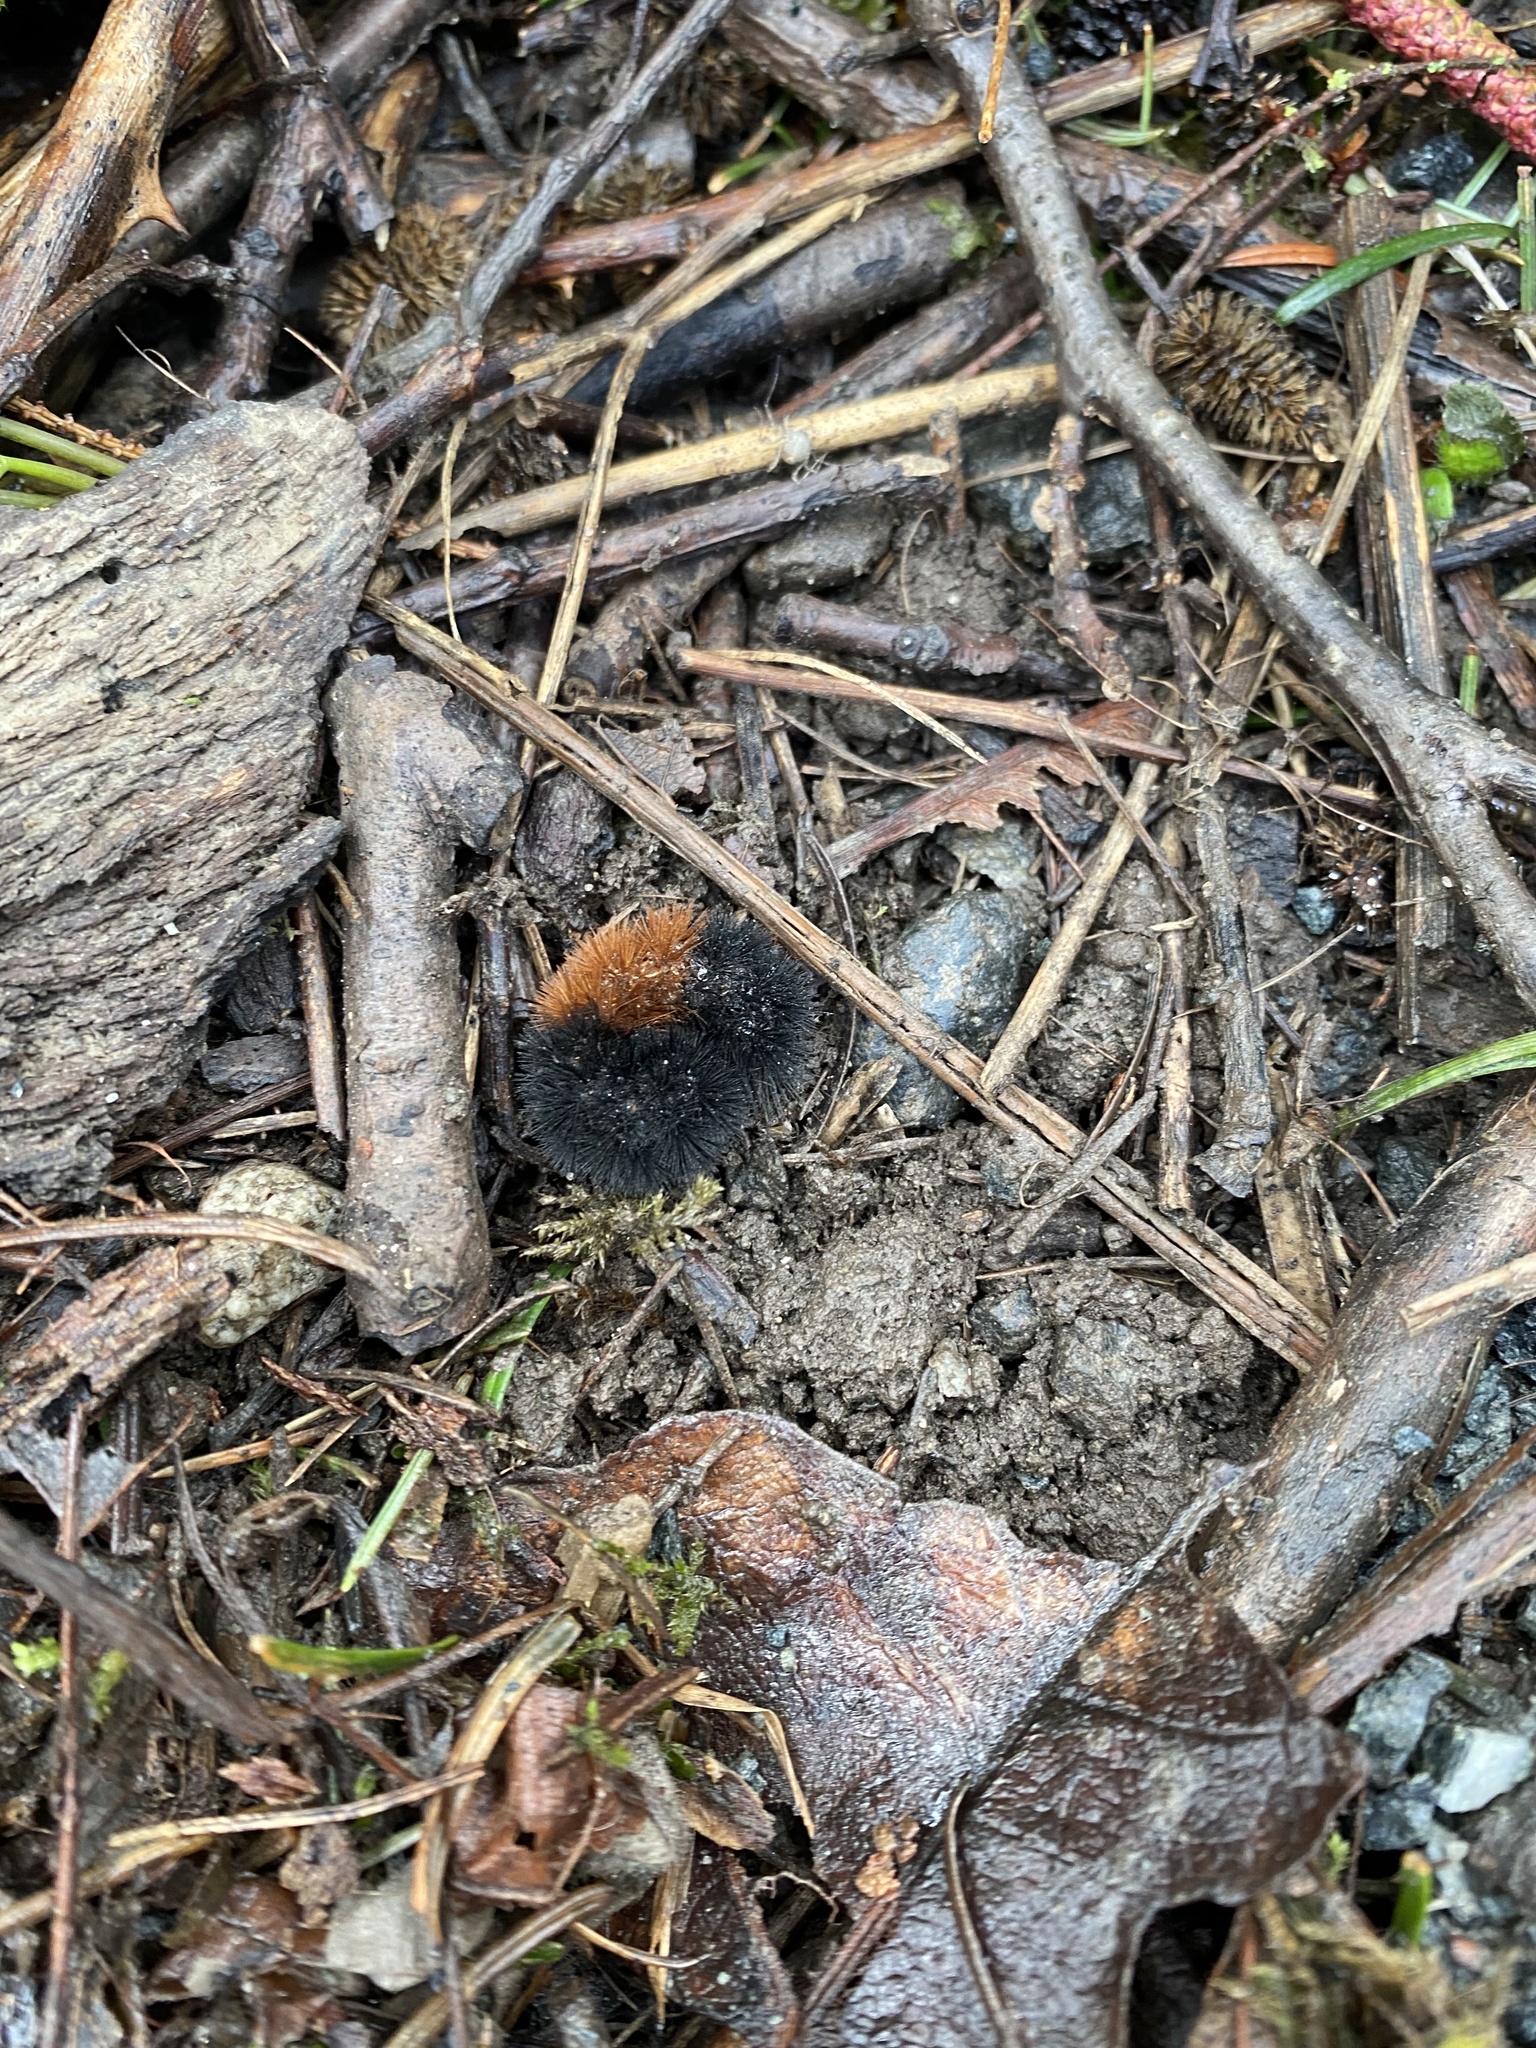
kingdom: Animalia
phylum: Arthropoda
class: Insecta
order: Lepidoptera
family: Erebidae
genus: Pyrrharctia
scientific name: Pyrrharctia isabella
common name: Isabella tiger moth
